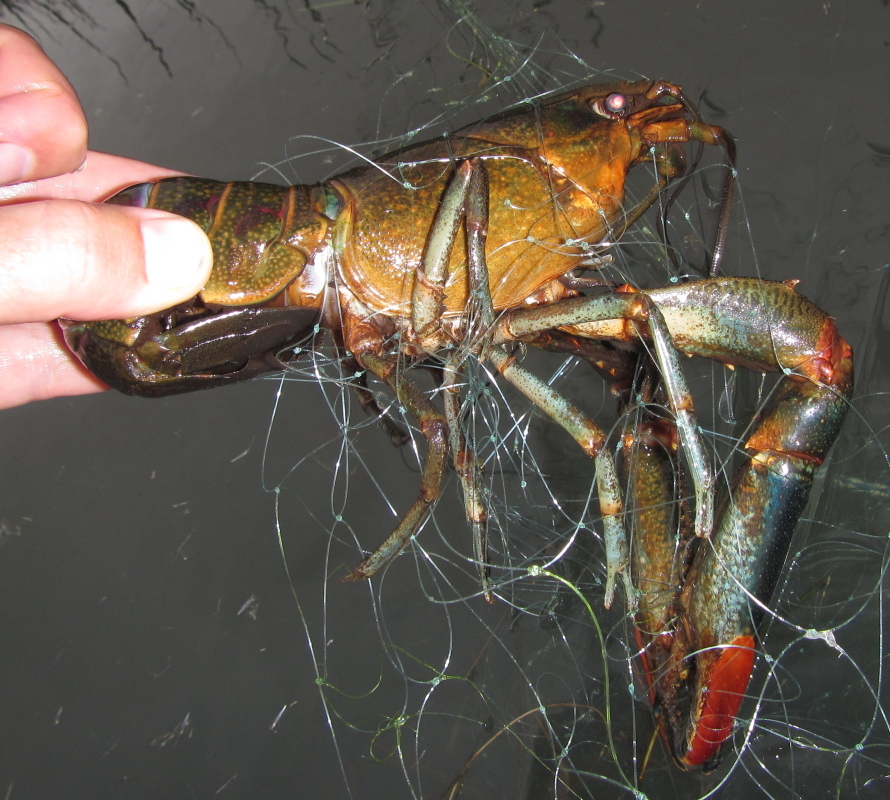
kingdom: Animalia
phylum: Arthropoda
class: Malacostraca
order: Decapoda
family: Parastacidae
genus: Cherax
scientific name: Cherax quadricarinatus
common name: Redclaw
